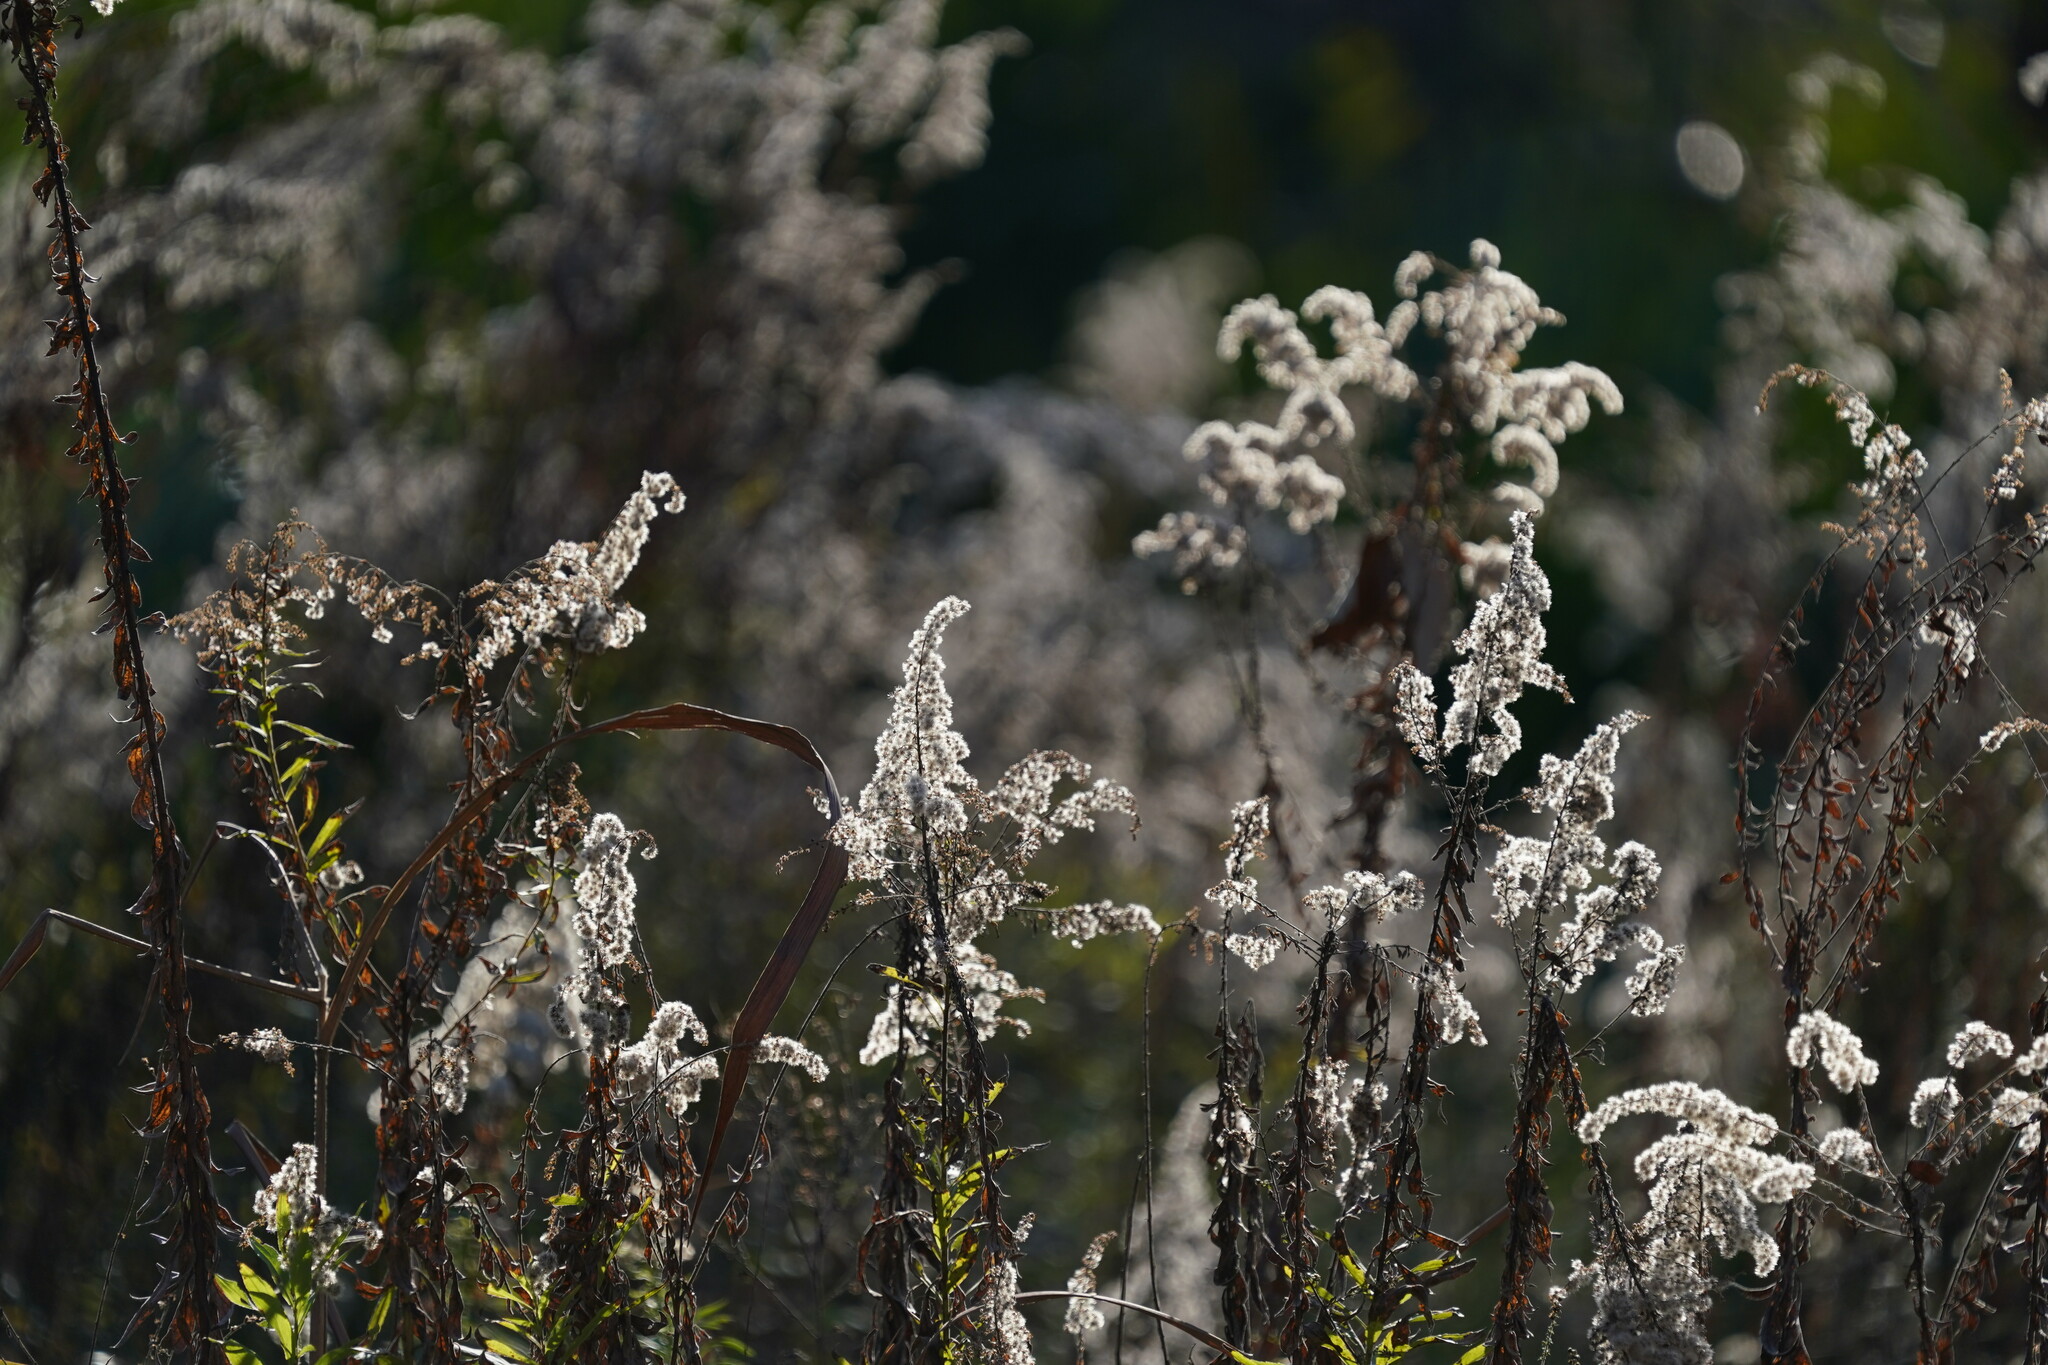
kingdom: Plantae
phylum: Tracheophyta
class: Magnoliopsida
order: Asterales
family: Asteraceae
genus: Solidago
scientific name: Solidago altissima
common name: Late goldenrod
